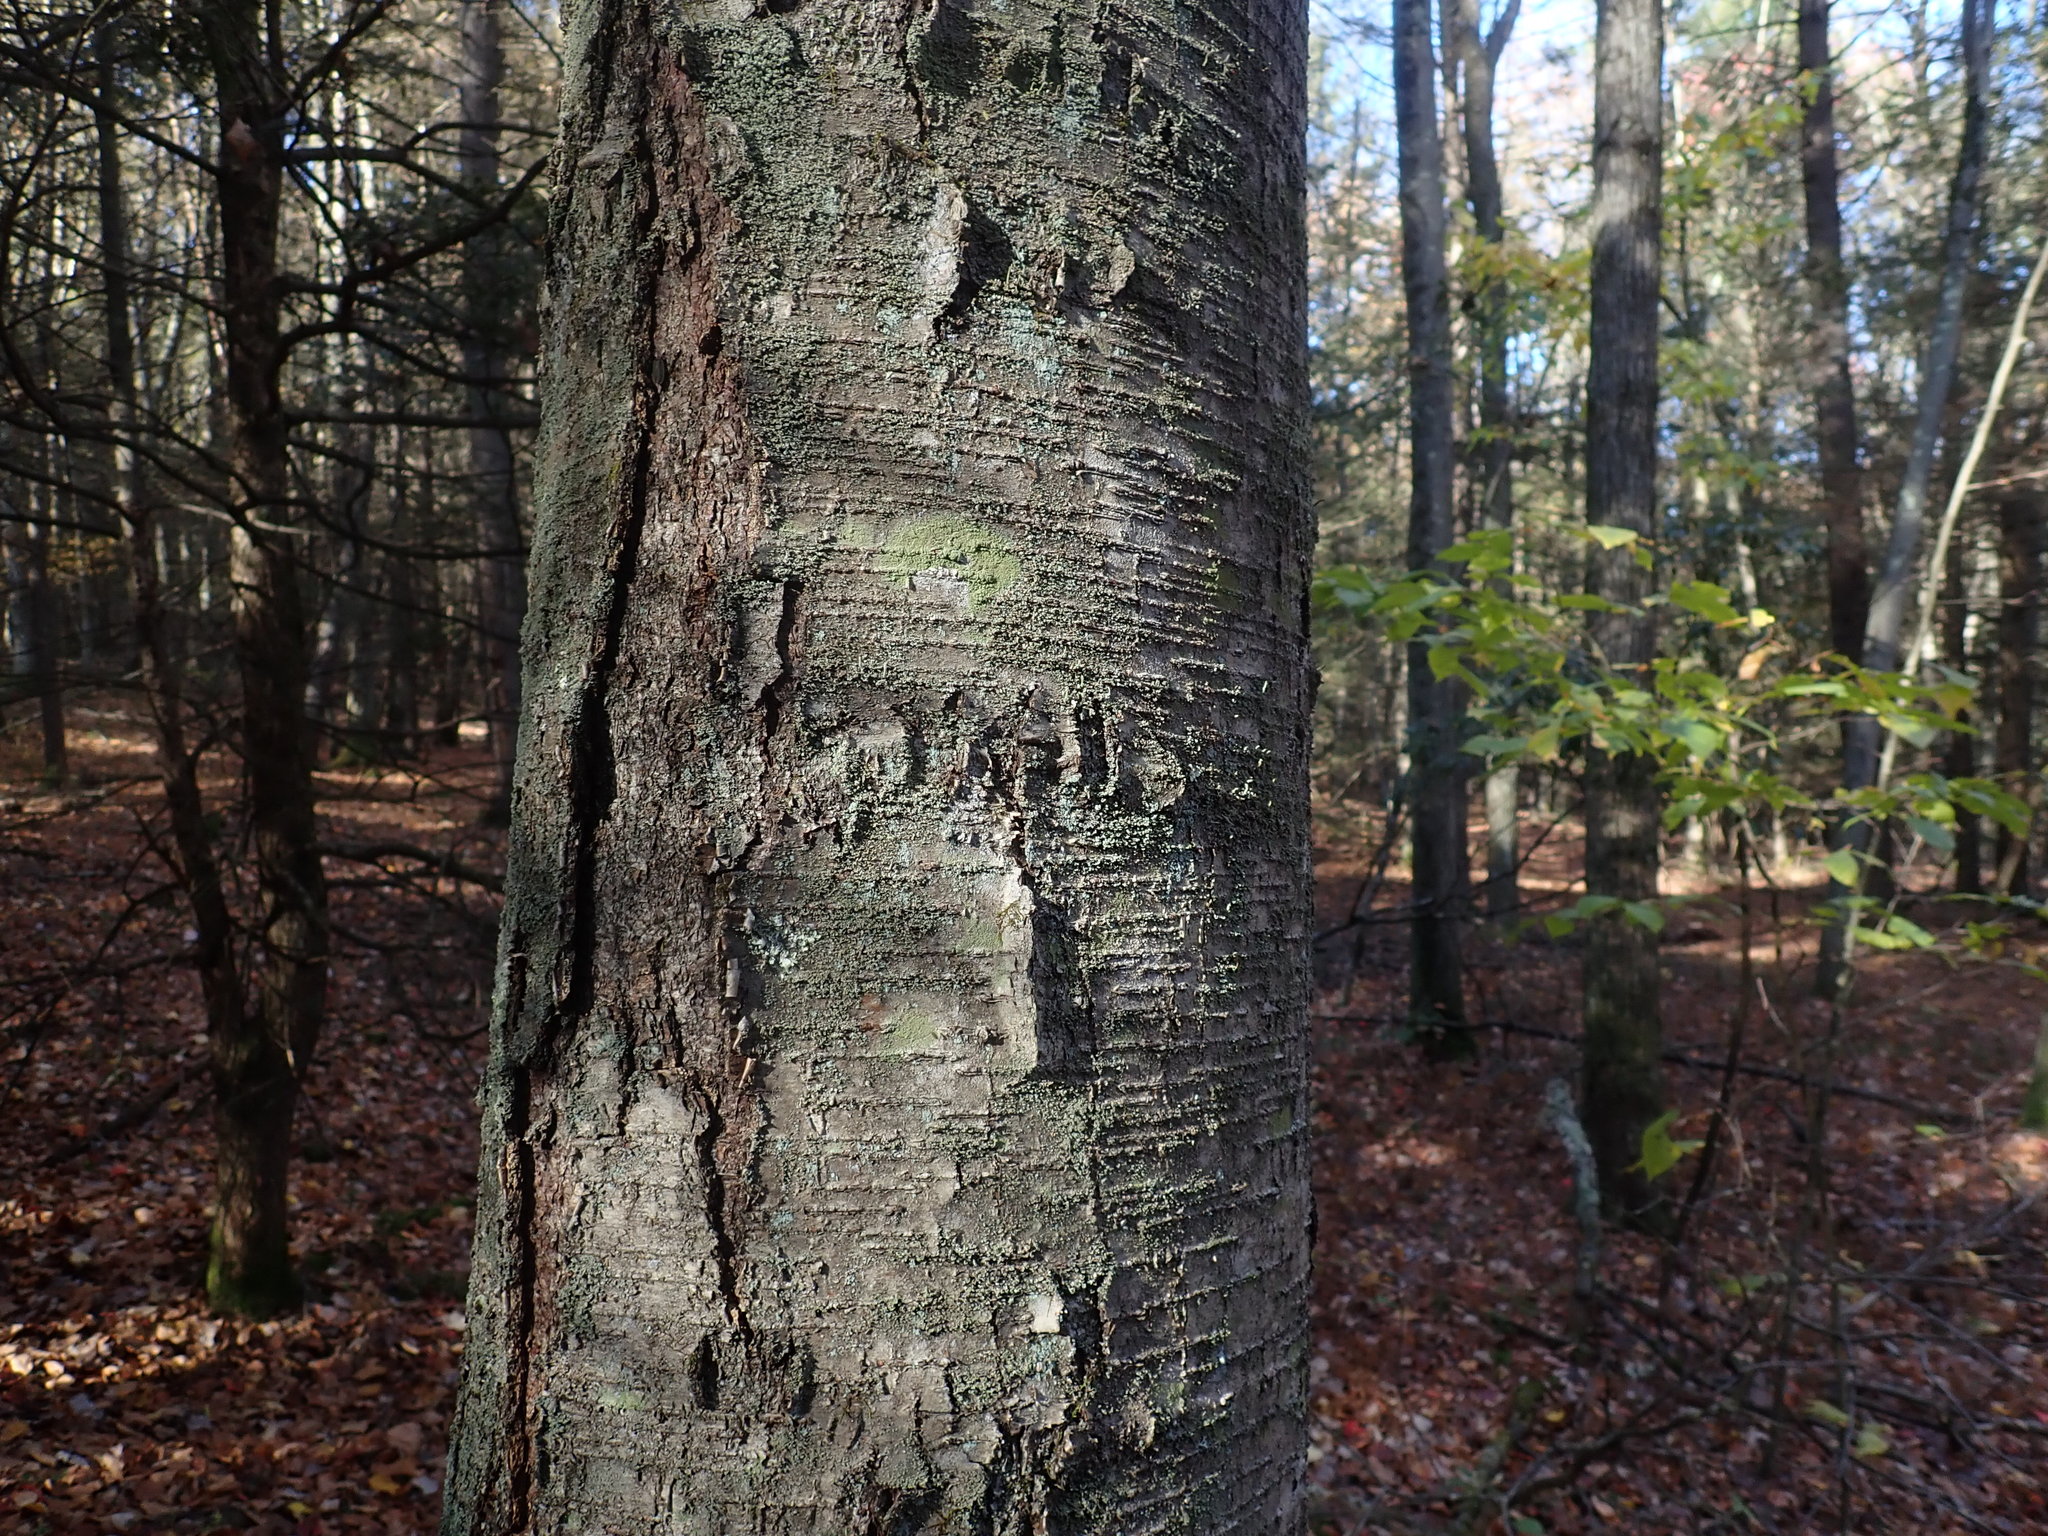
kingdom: Plantae
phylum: Tracheophyta
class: Magnoliopsida
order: Fagales
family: Betulaceae
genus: Betula
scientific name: Betula lenta
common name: Black birch
